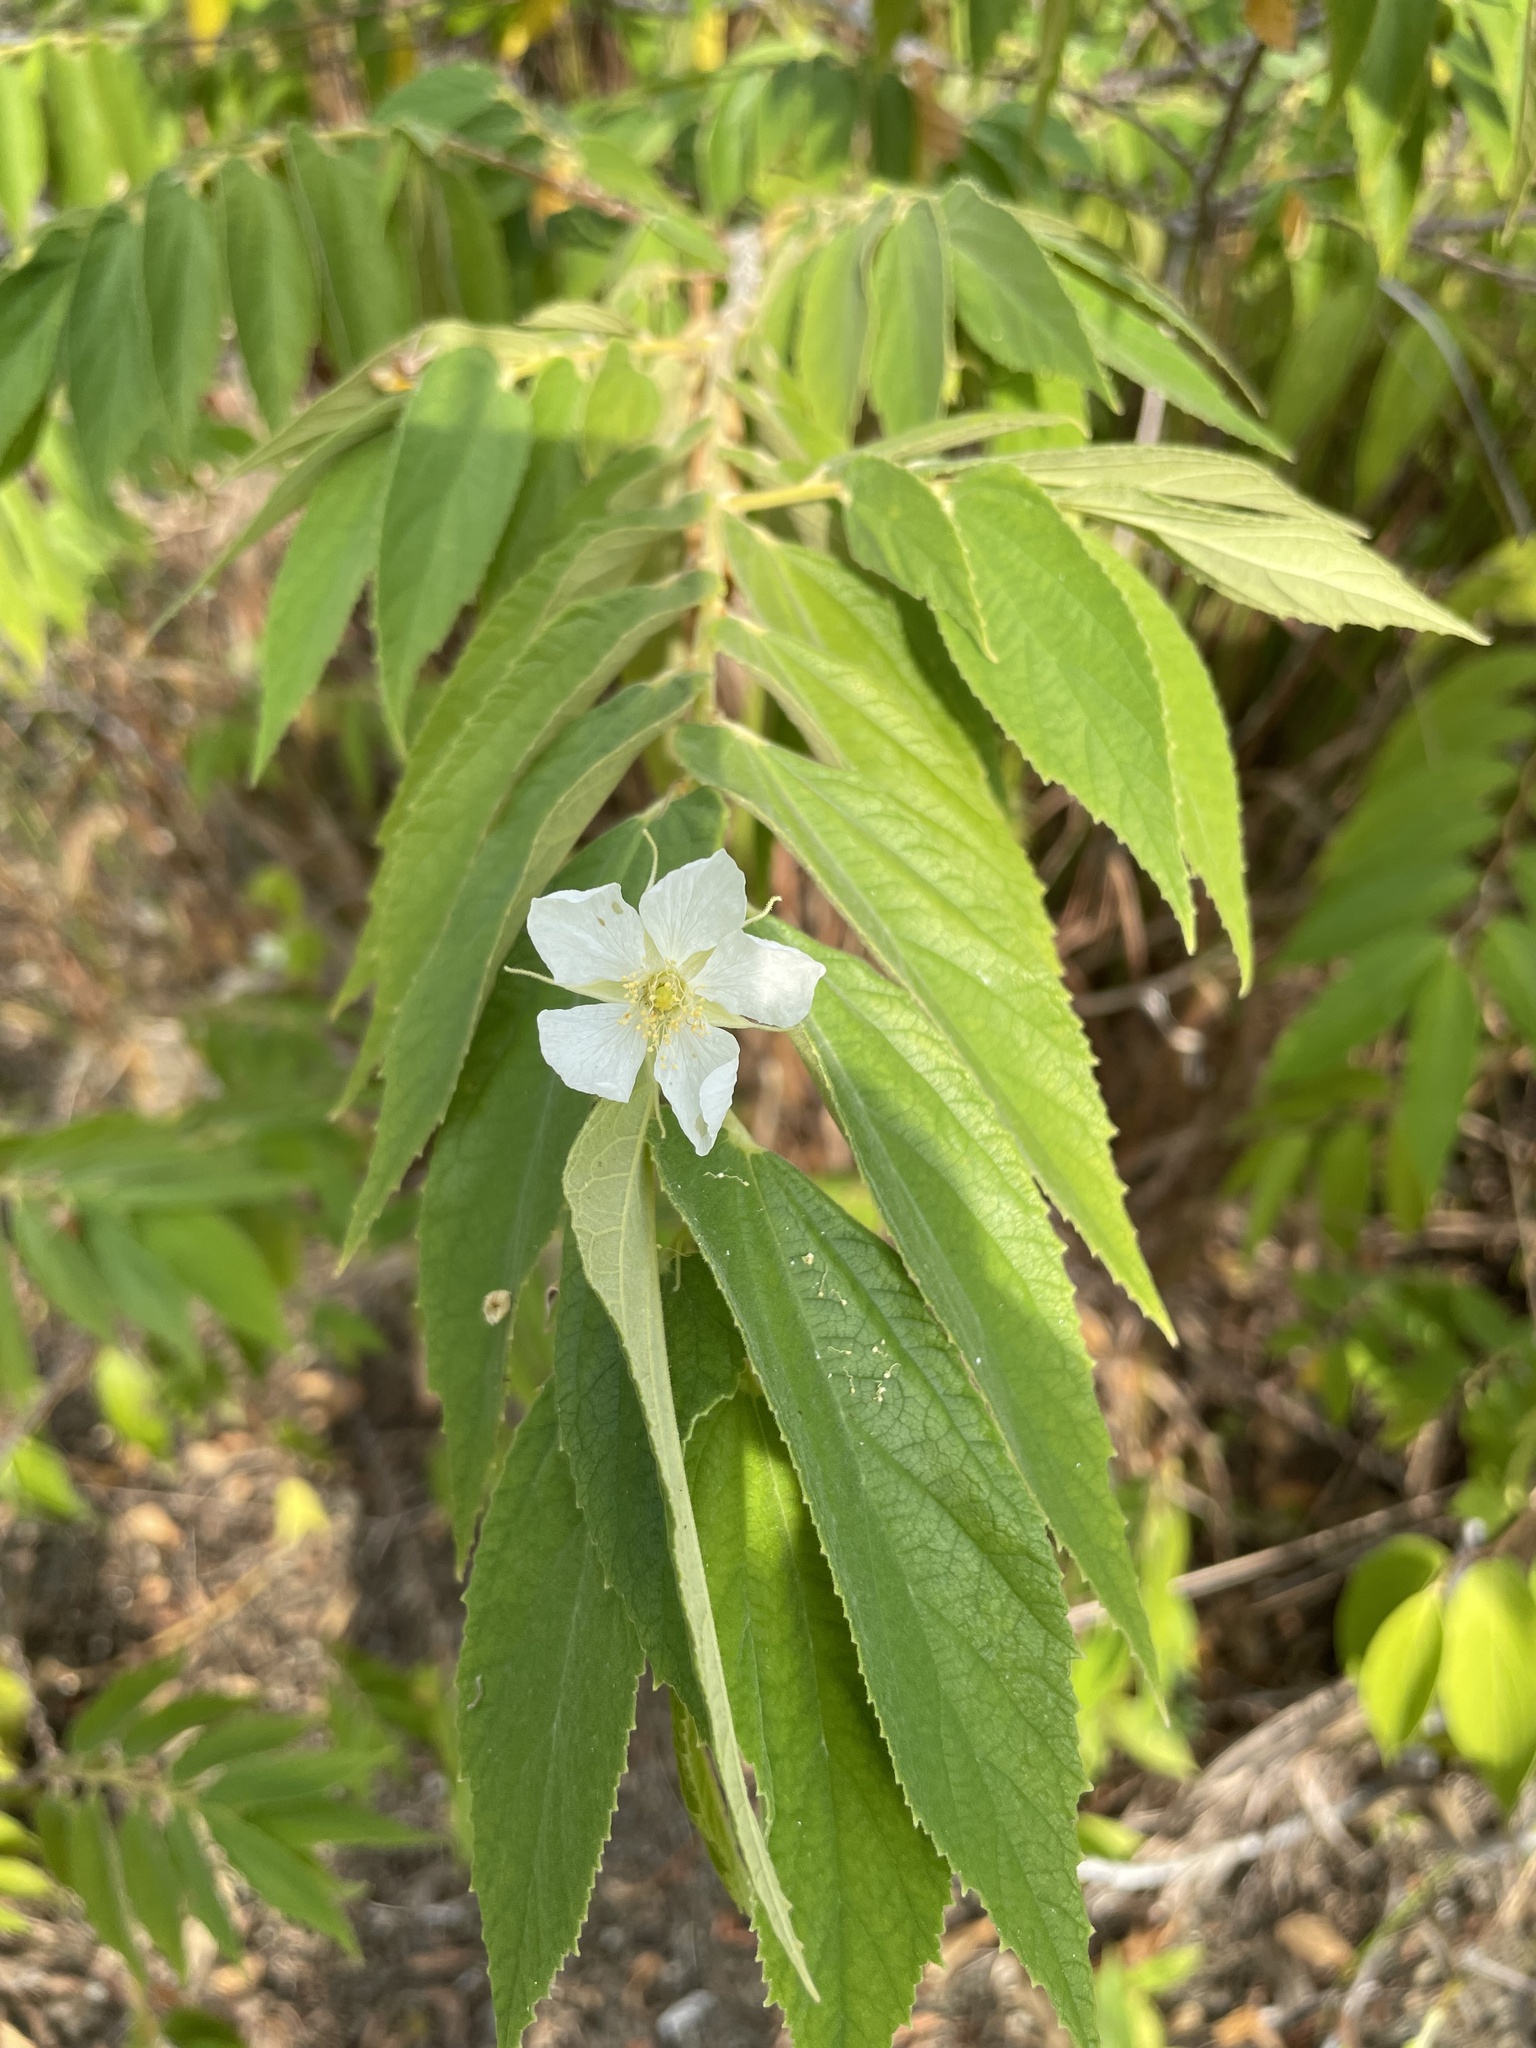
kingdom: Plantae
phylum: Tracheophyta
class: Magnoliopsida
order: Malvales
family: Muntingiaceae
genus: Muntingia
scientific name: Muntingia calabura
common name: Strawberrytree
